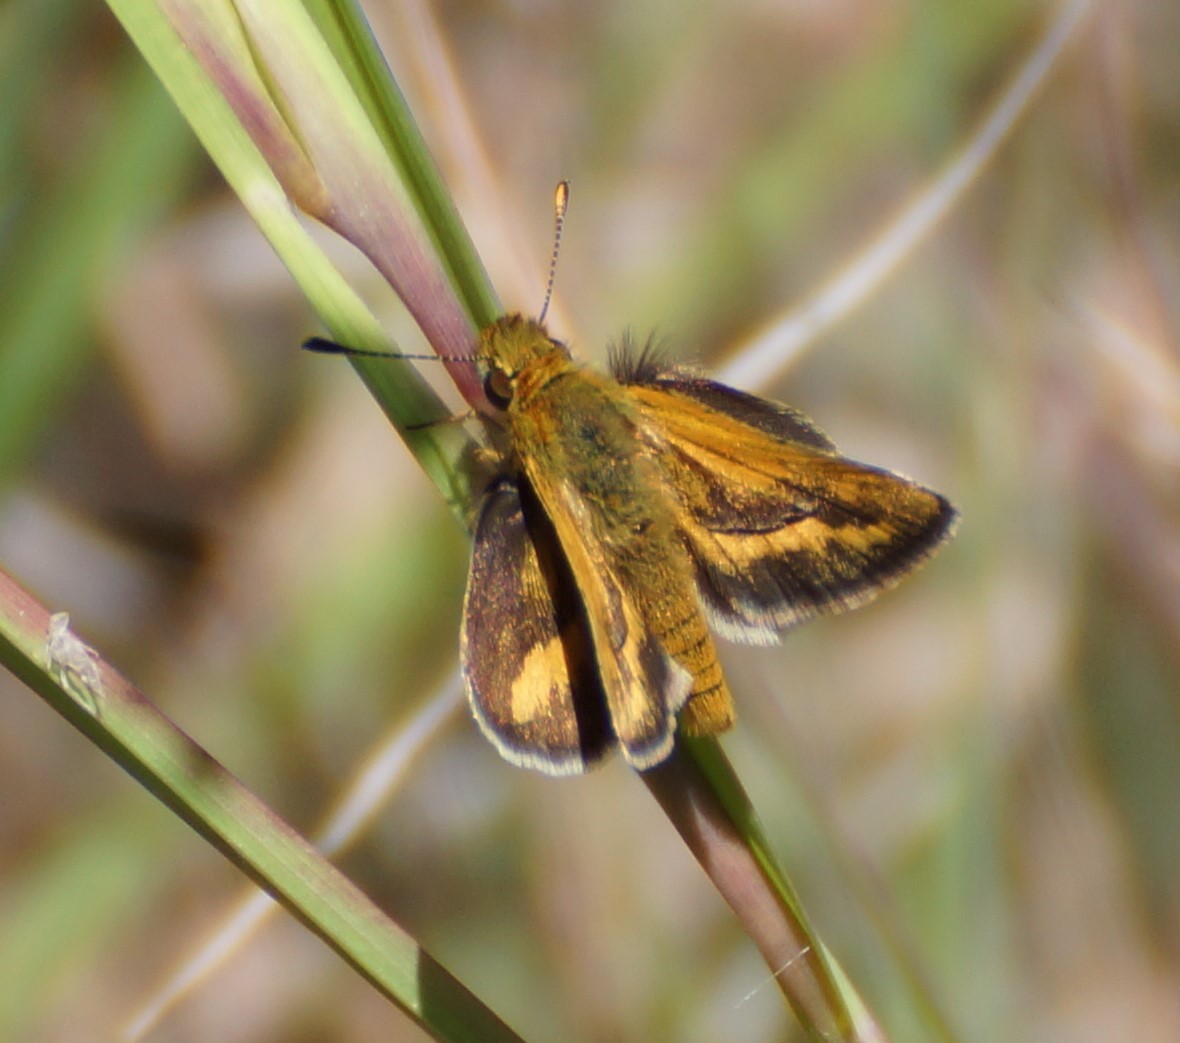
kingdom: Animalia
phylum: Arthropoda
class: Insecta
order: Lepidoptera
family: Hesperiidae
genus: Ocybadistes
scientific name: Ocybadistes walkeri
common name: Yellow-banded dart
